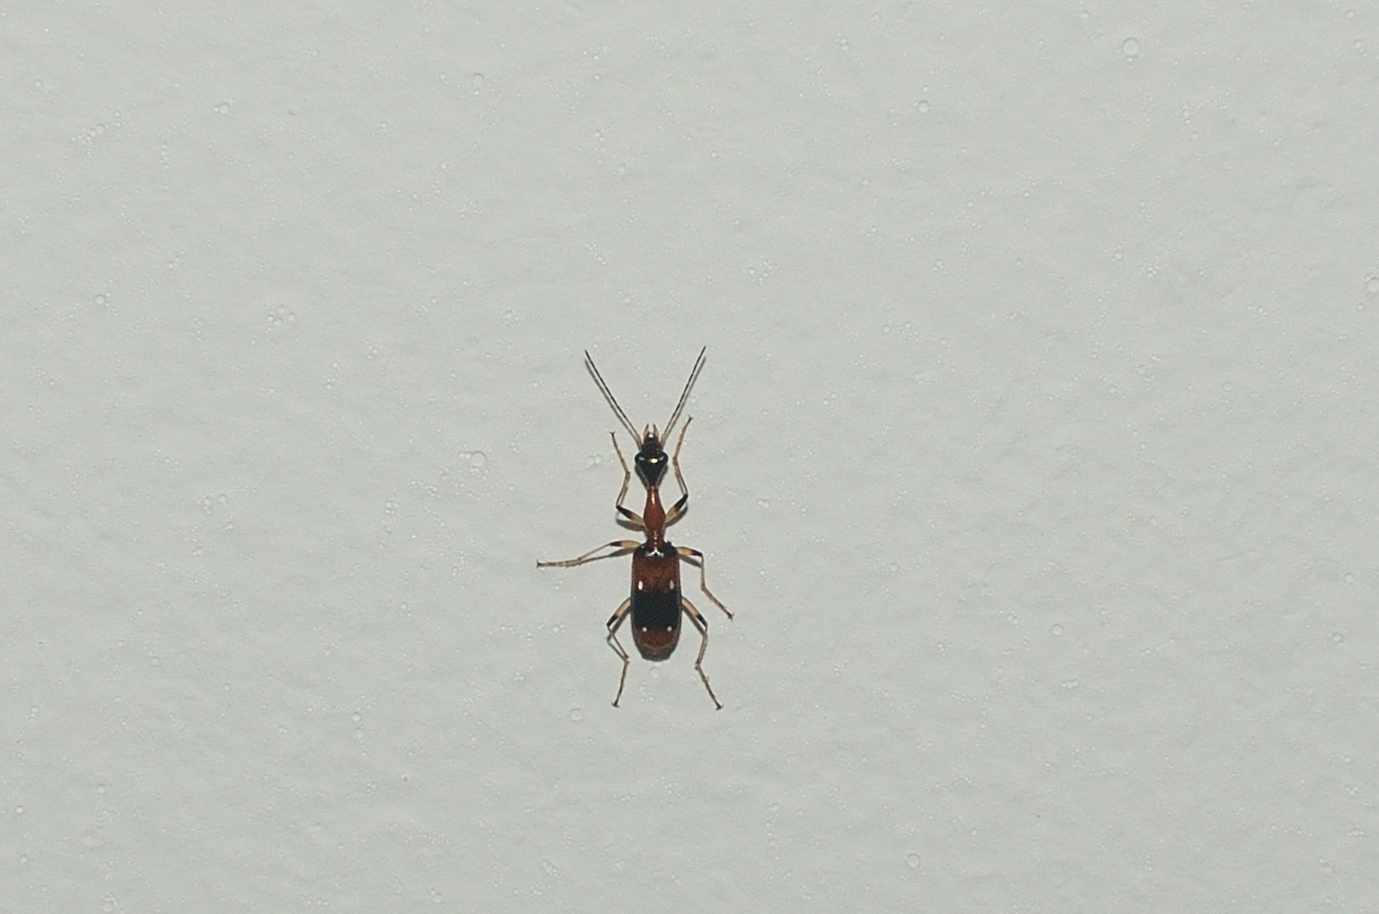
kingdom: Animalia
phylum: Arthropoda
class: Insecta
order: Coleoptera
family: Carabidae
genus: Ophionea
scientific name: Ophionea indica
